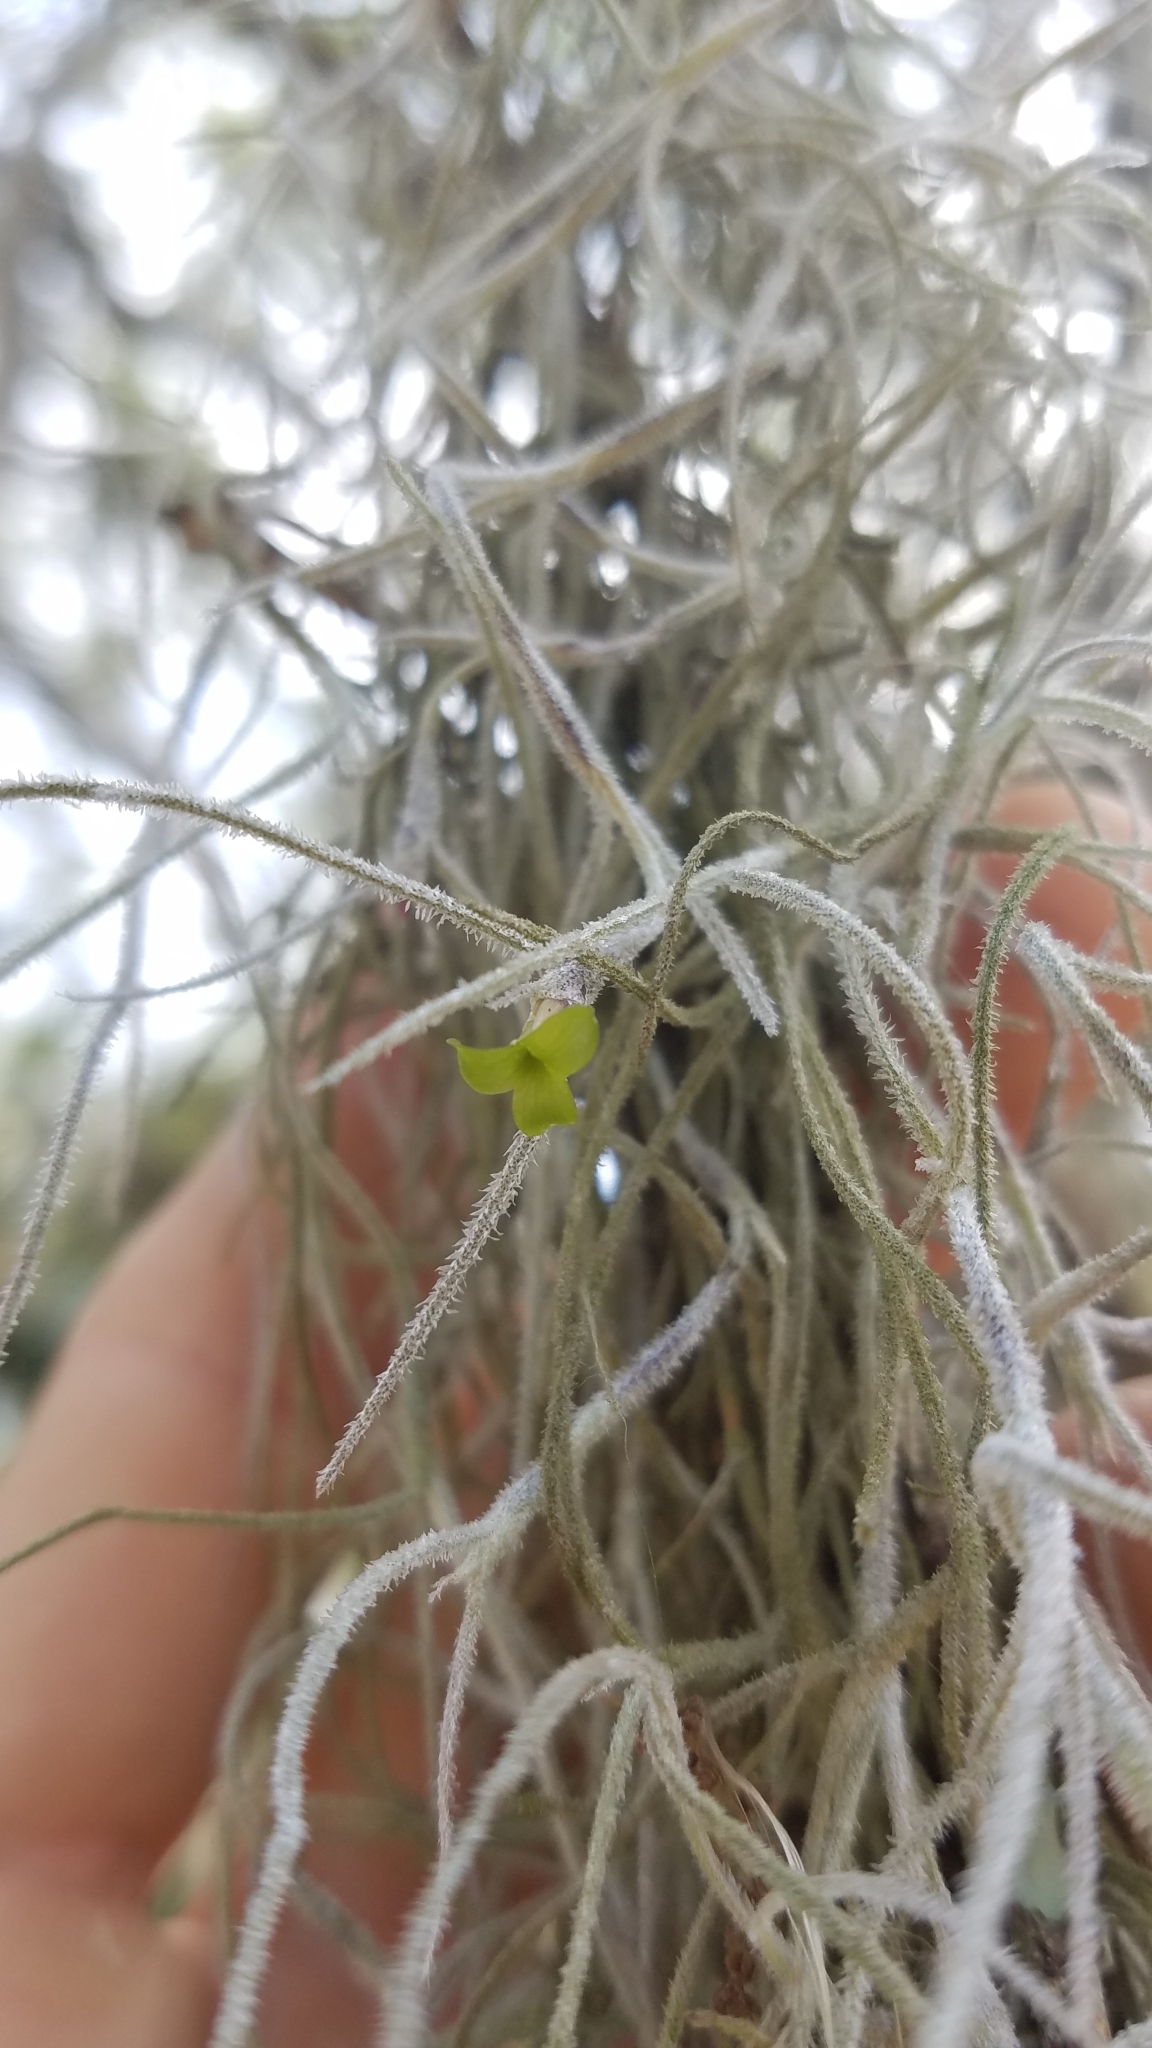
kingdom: Plantae
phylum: Tracheophyta
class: Liliopsida
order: Poales
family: Bromeliaceae
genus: Tillandsia
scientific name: Tillandsia usneoides
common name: Spanish moss
